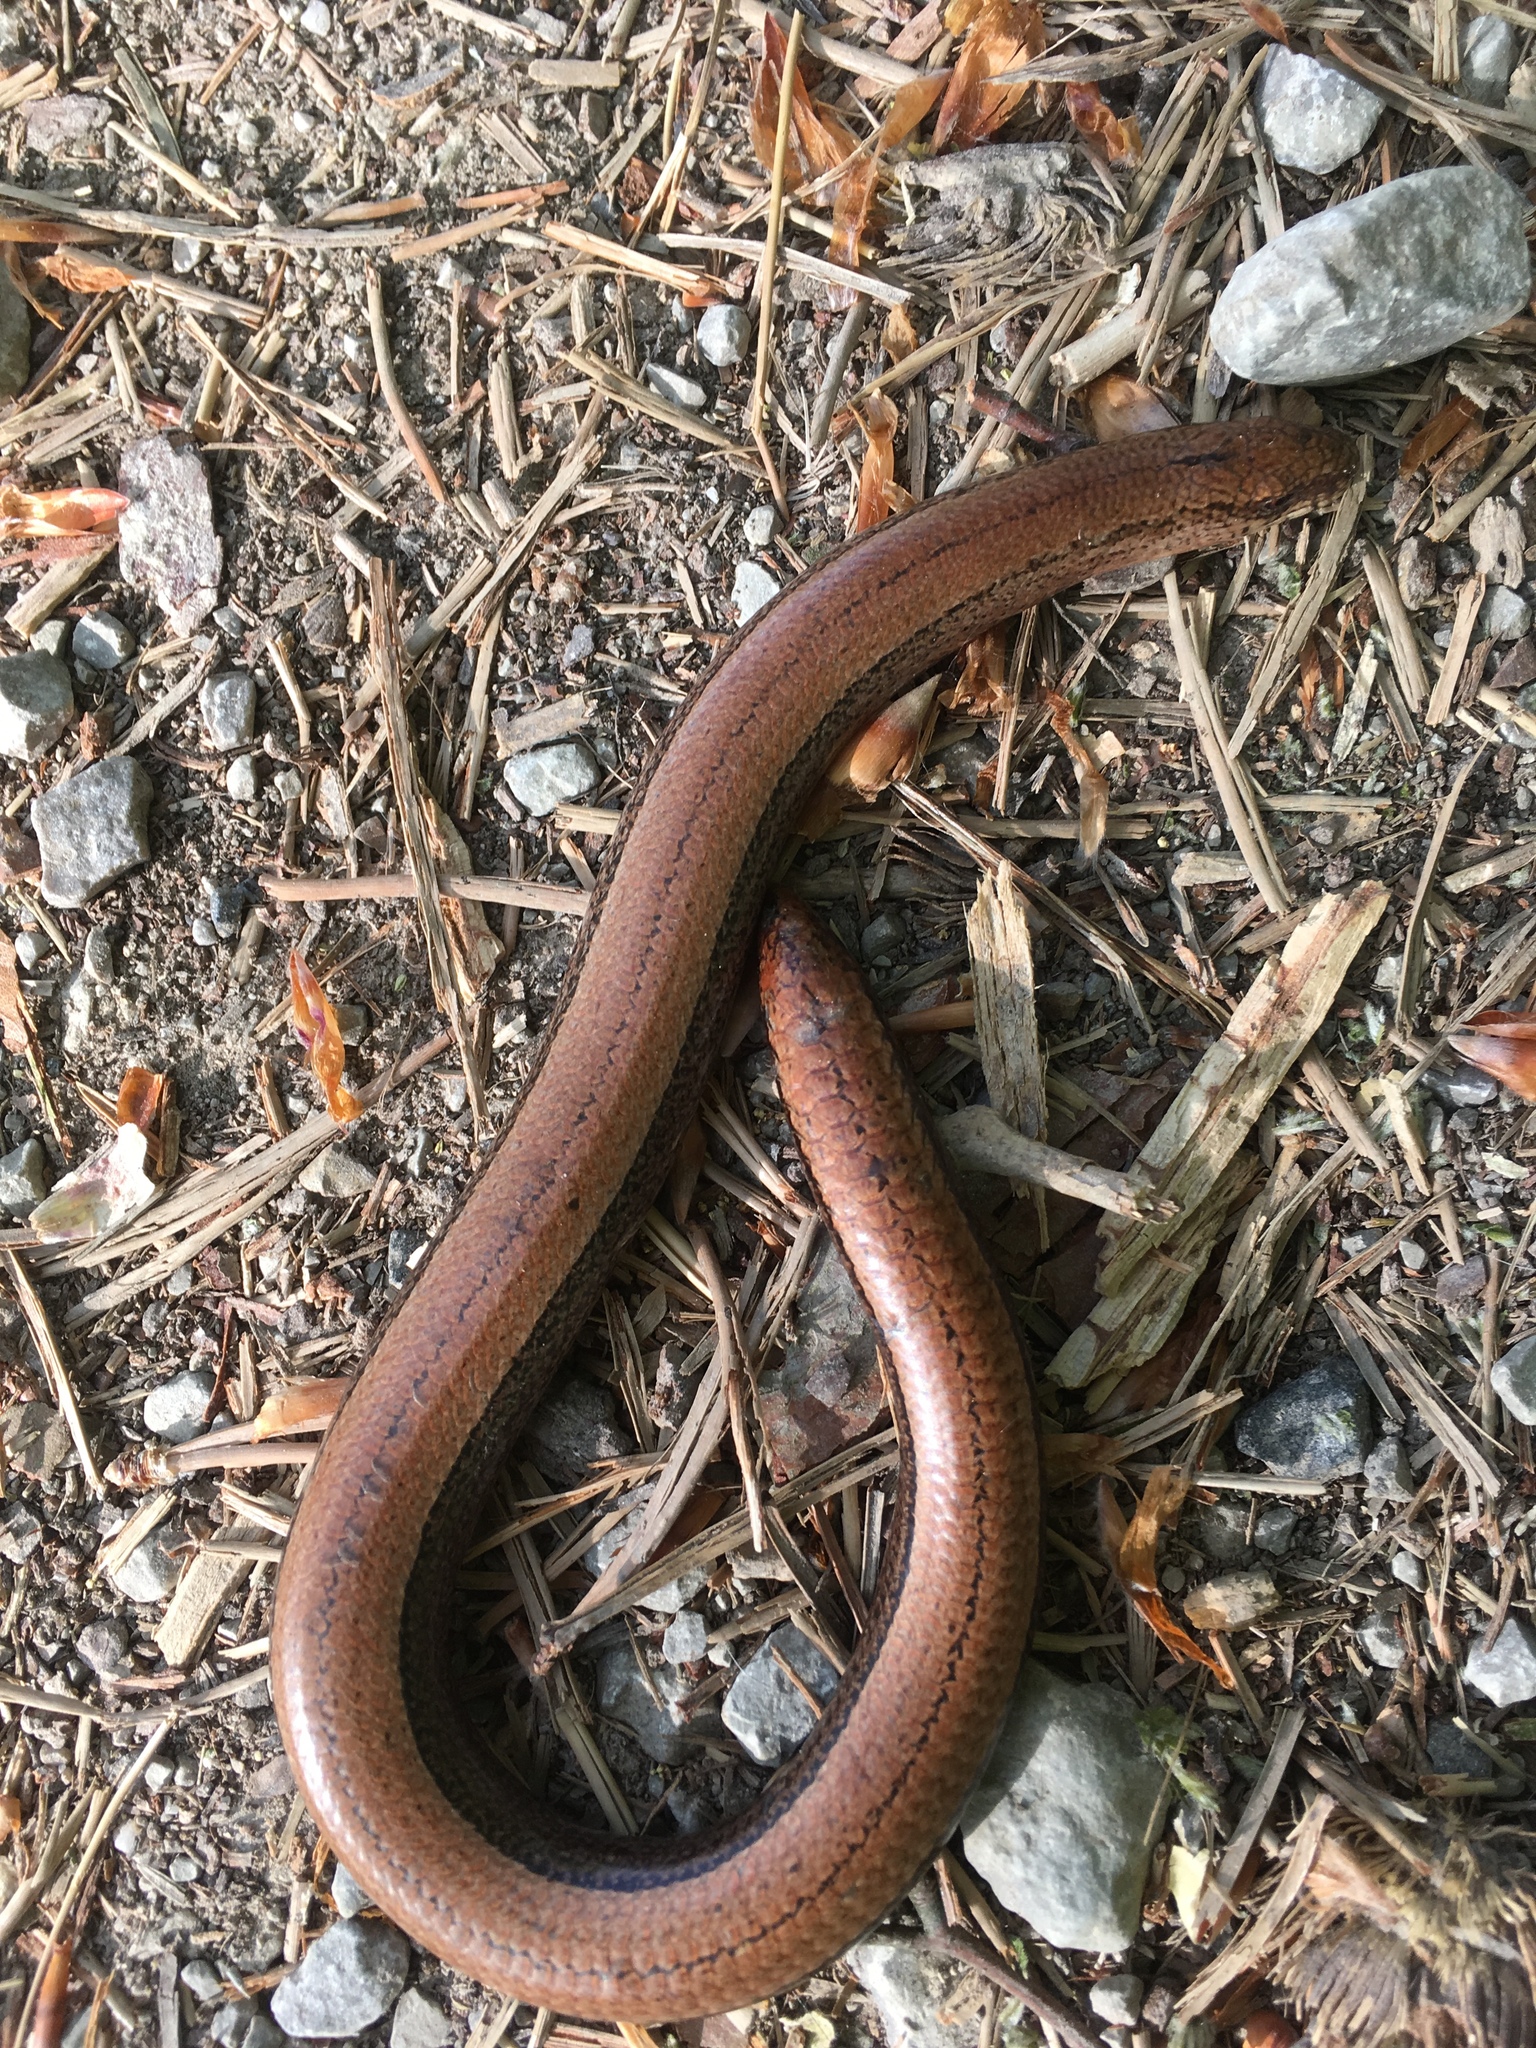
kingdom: Animalia
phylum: Chordata
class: Squamata
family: Anguidae
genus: Anguis
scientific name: Anguis fragilis
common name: Slow worm
